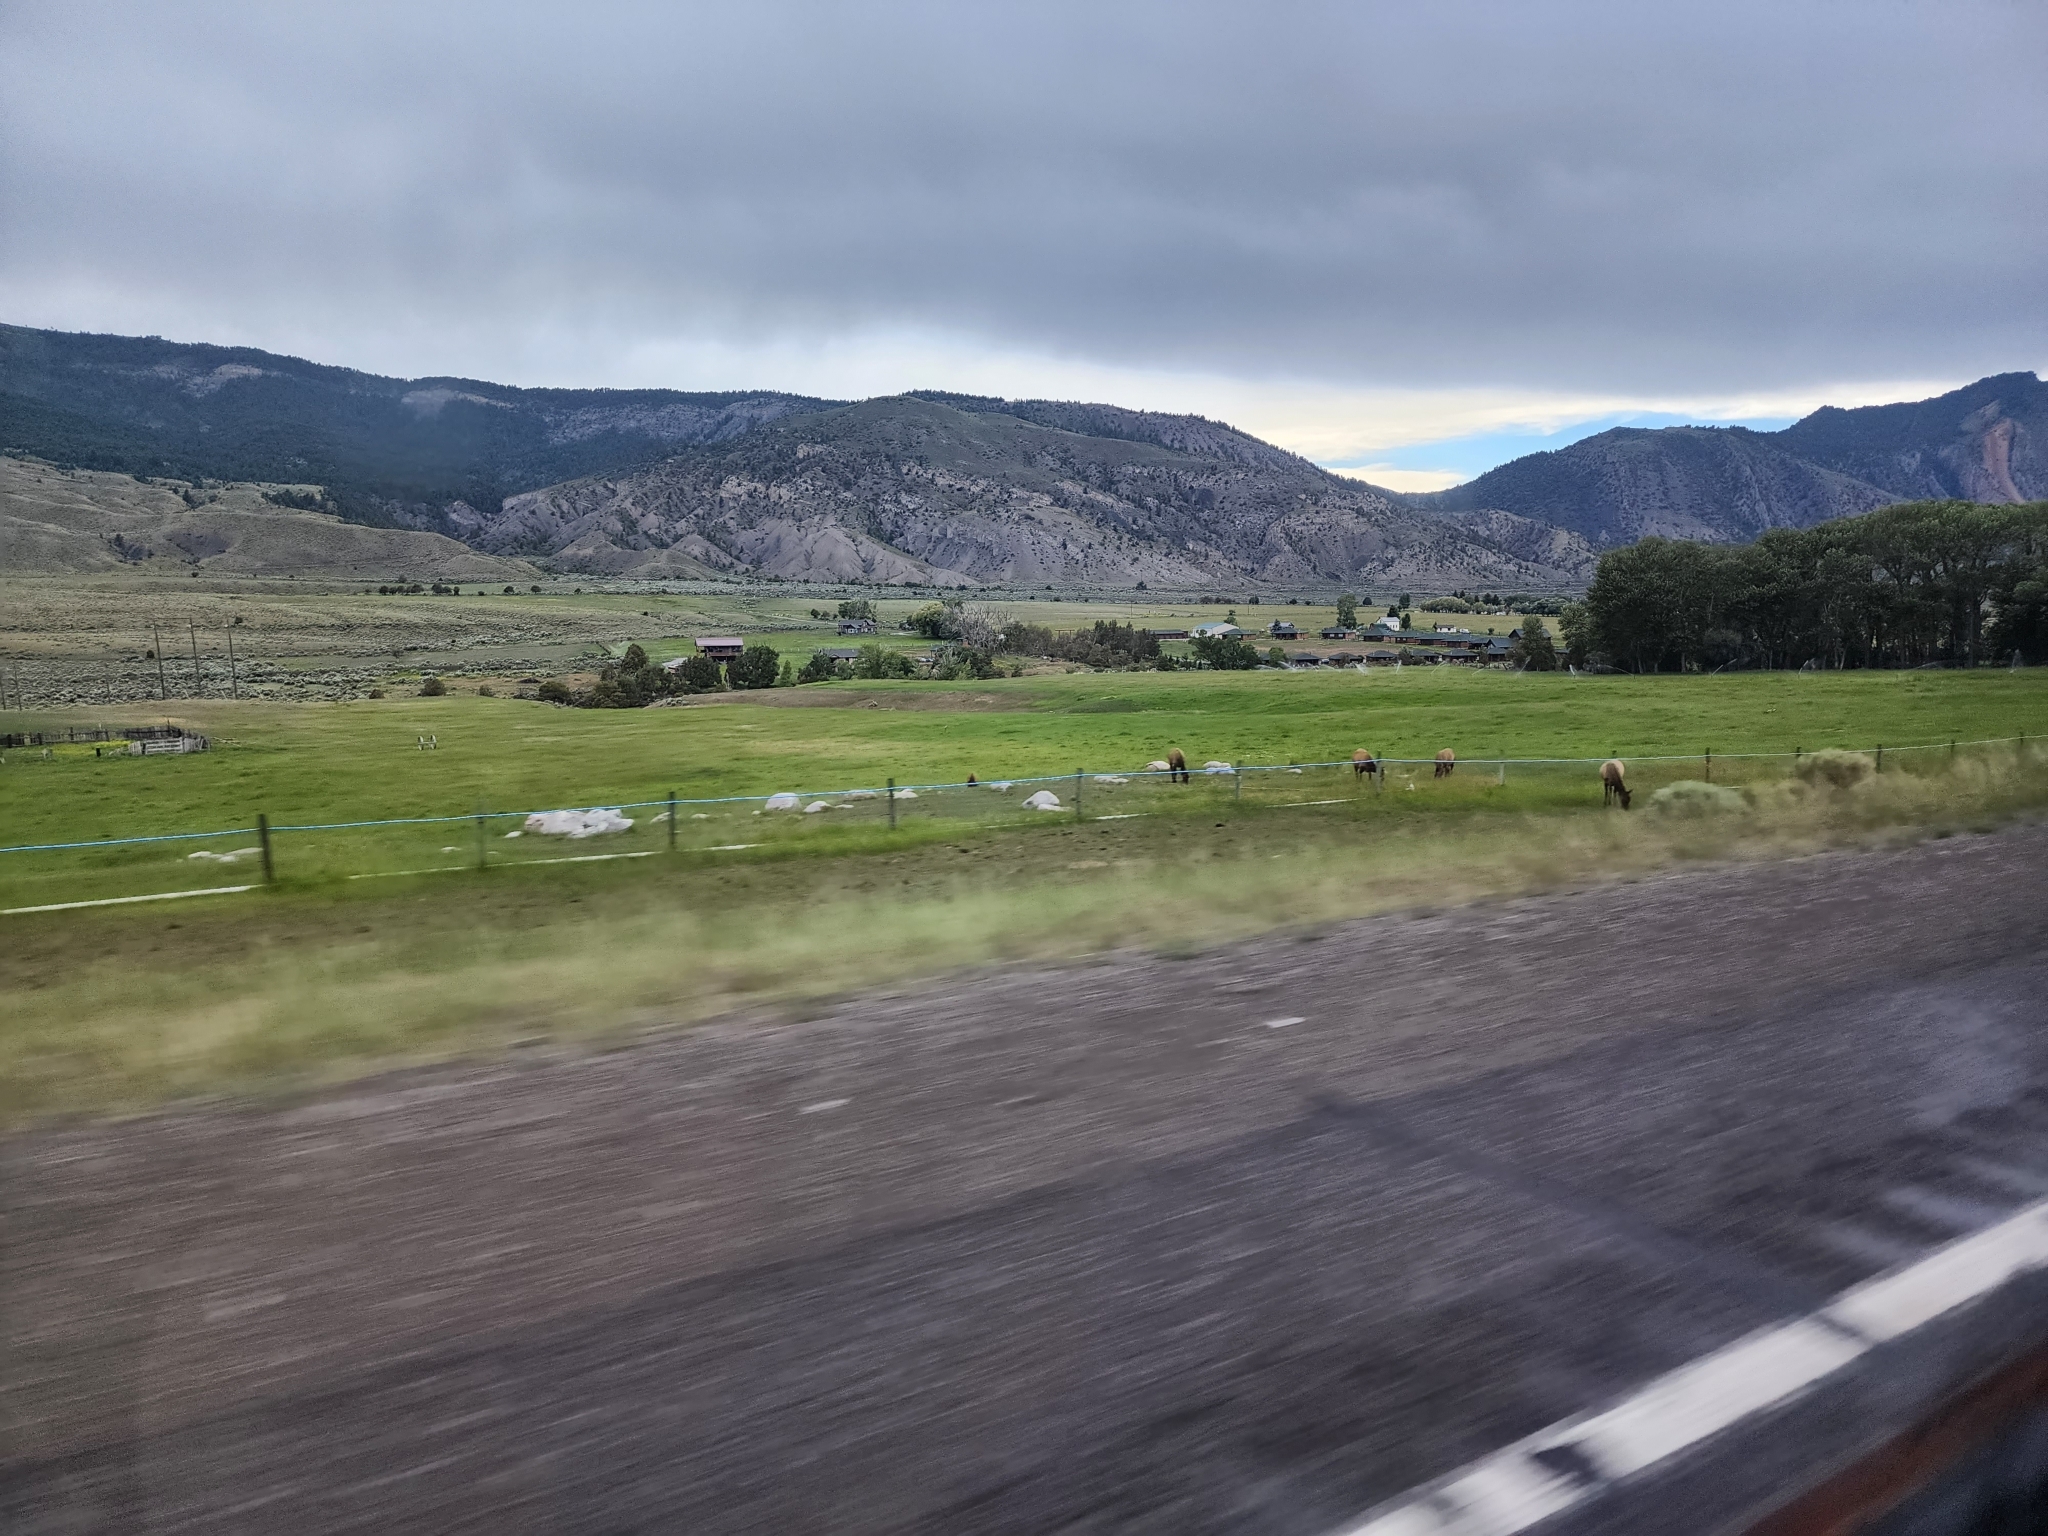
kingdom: Animalia
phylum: Chordata
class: Mammalia
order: Artiodactyla
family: Cervidae
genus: Cervus
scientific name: Cervus elaphus
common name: Red deer
